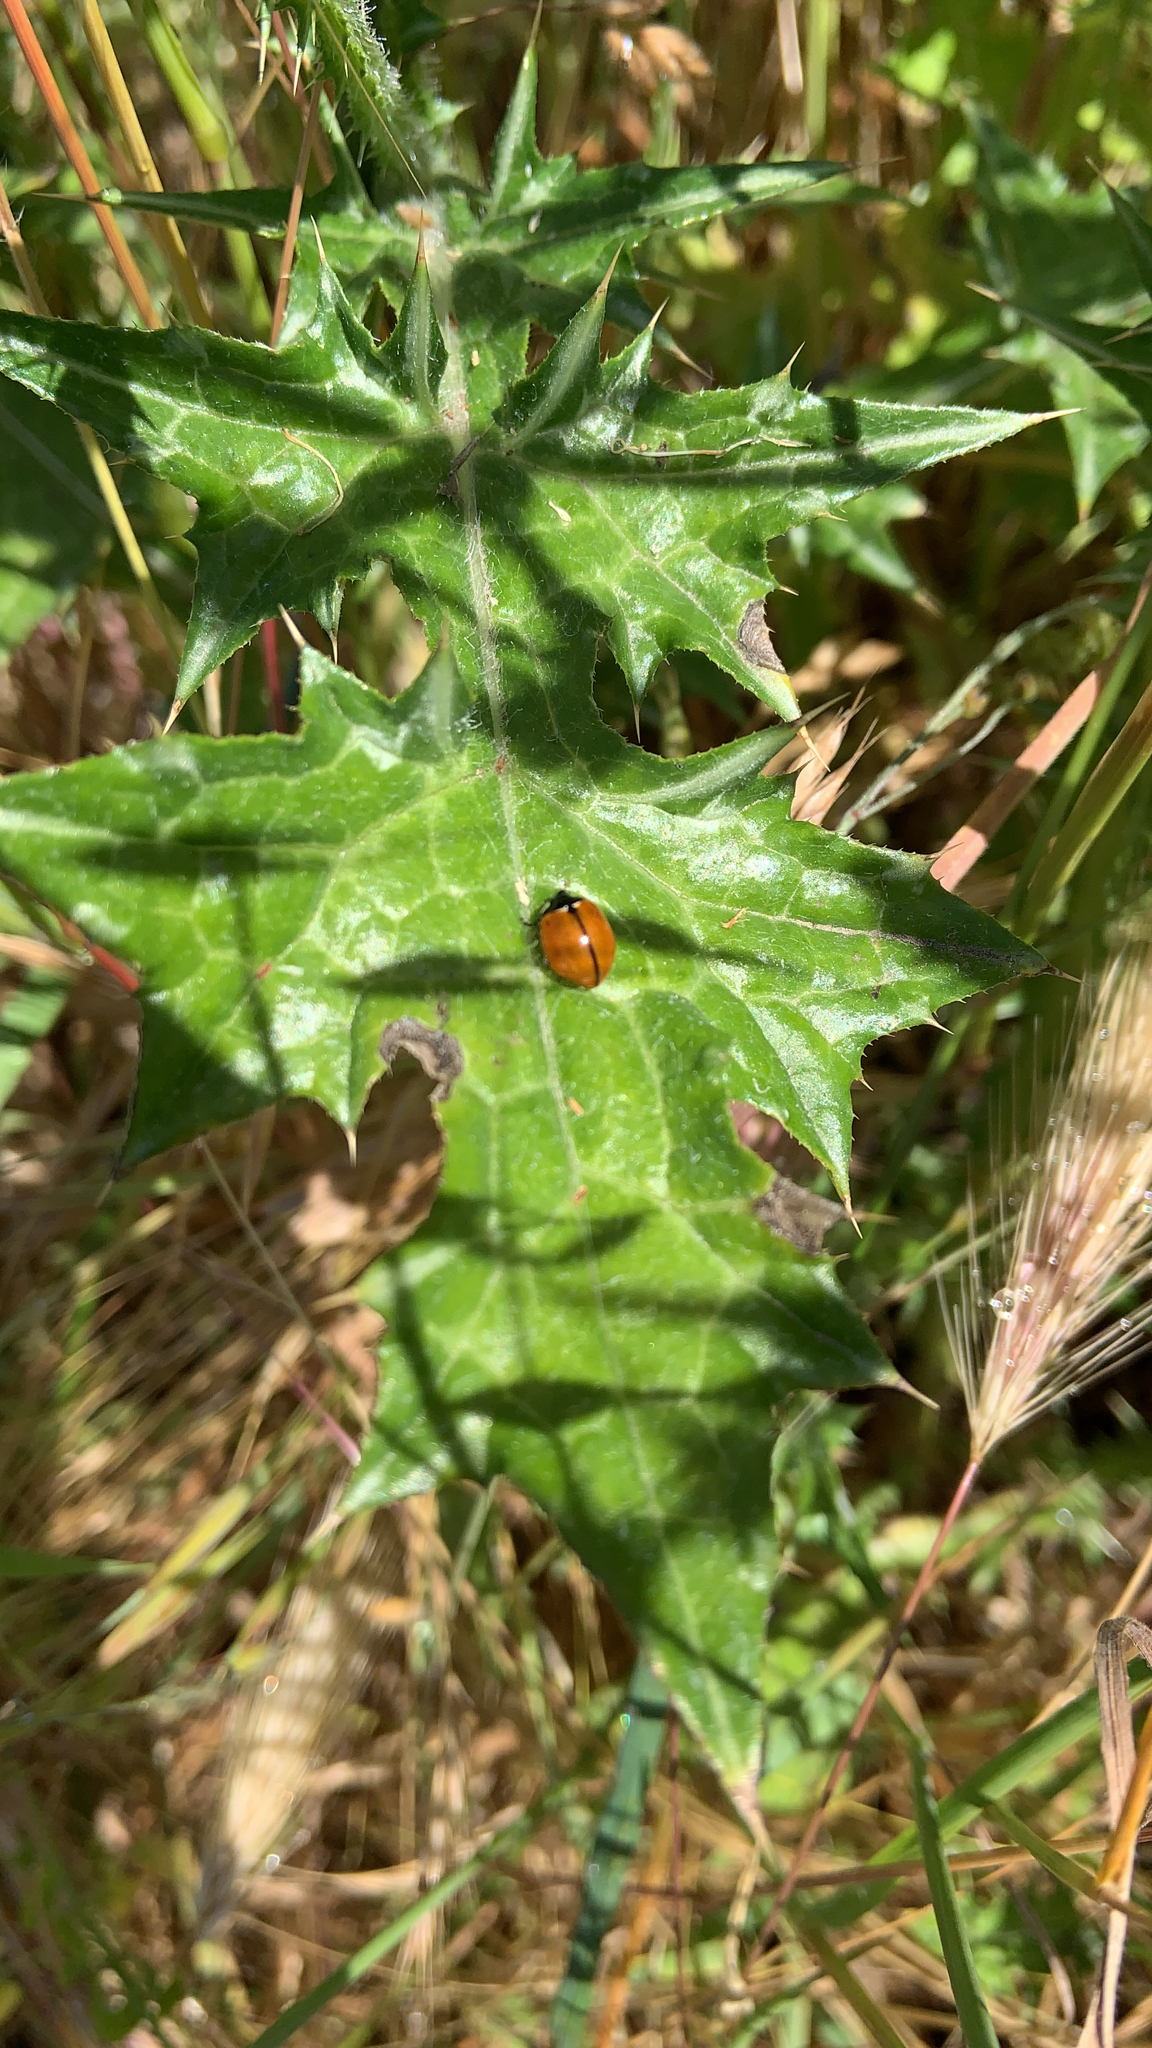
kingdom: Animalia
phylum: Arthropoda
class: Insecta
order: Coleoptera
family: Coccinellidae
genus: Coccinella
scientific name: Coccinella californica
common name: Lady beetle
